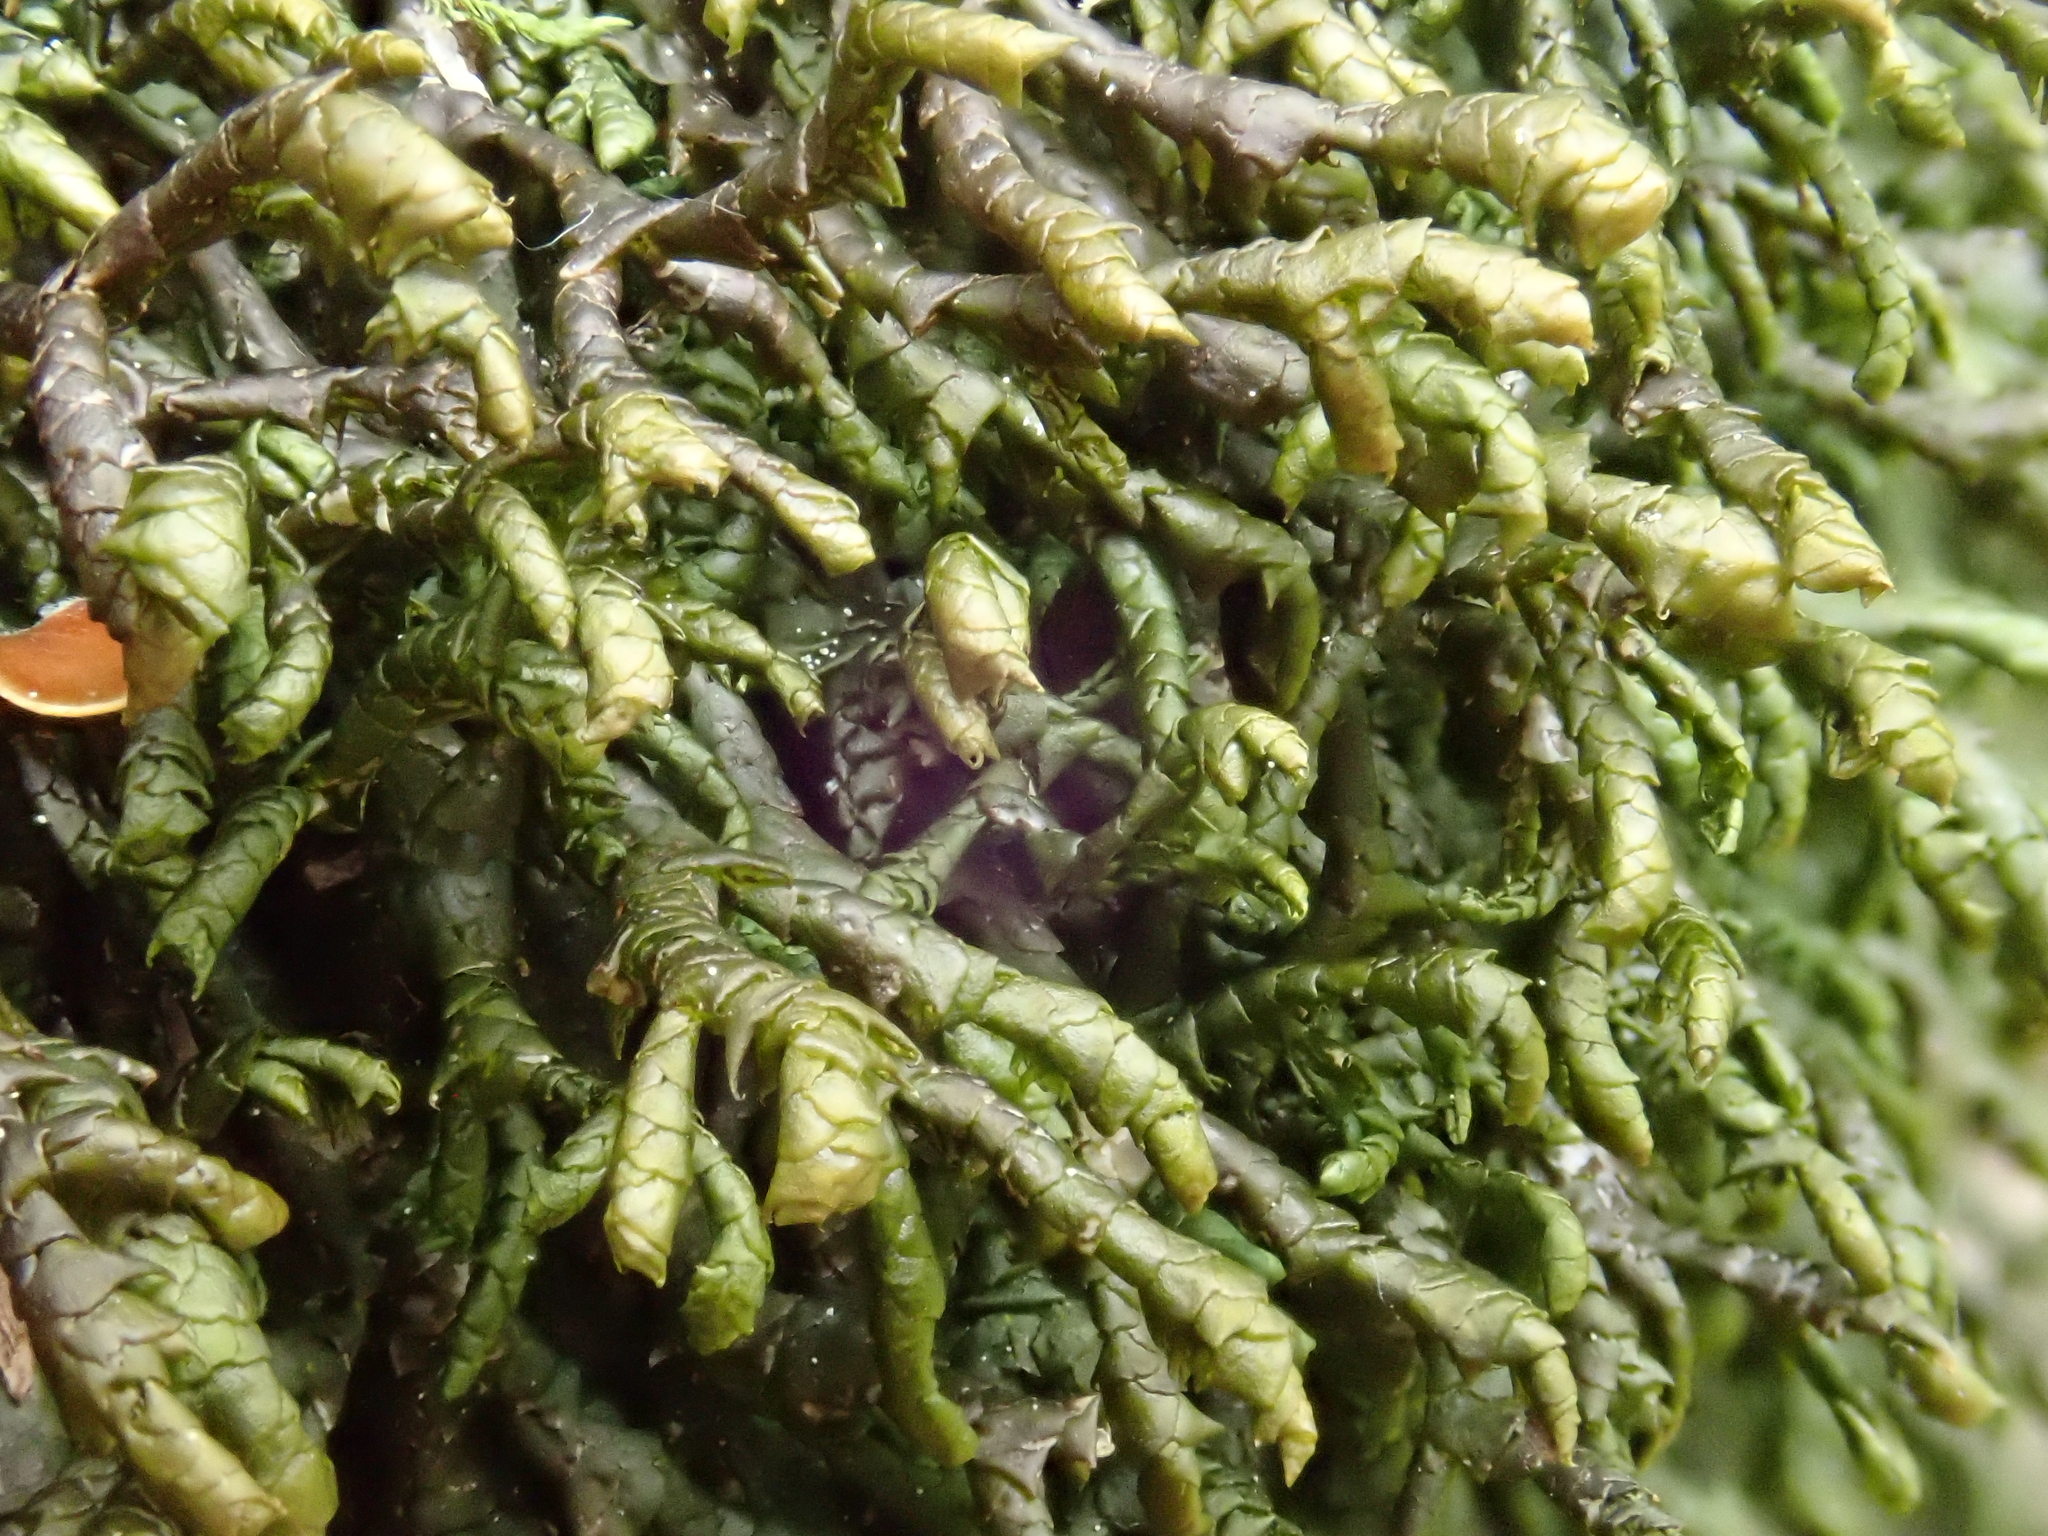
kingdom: Plantae
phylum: Marchantiophyta
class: Jungermanniopsida
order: Porellales
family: Porellaceae
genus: Porella
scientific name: Porella arboris-vitae
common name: Bitter scalewort
